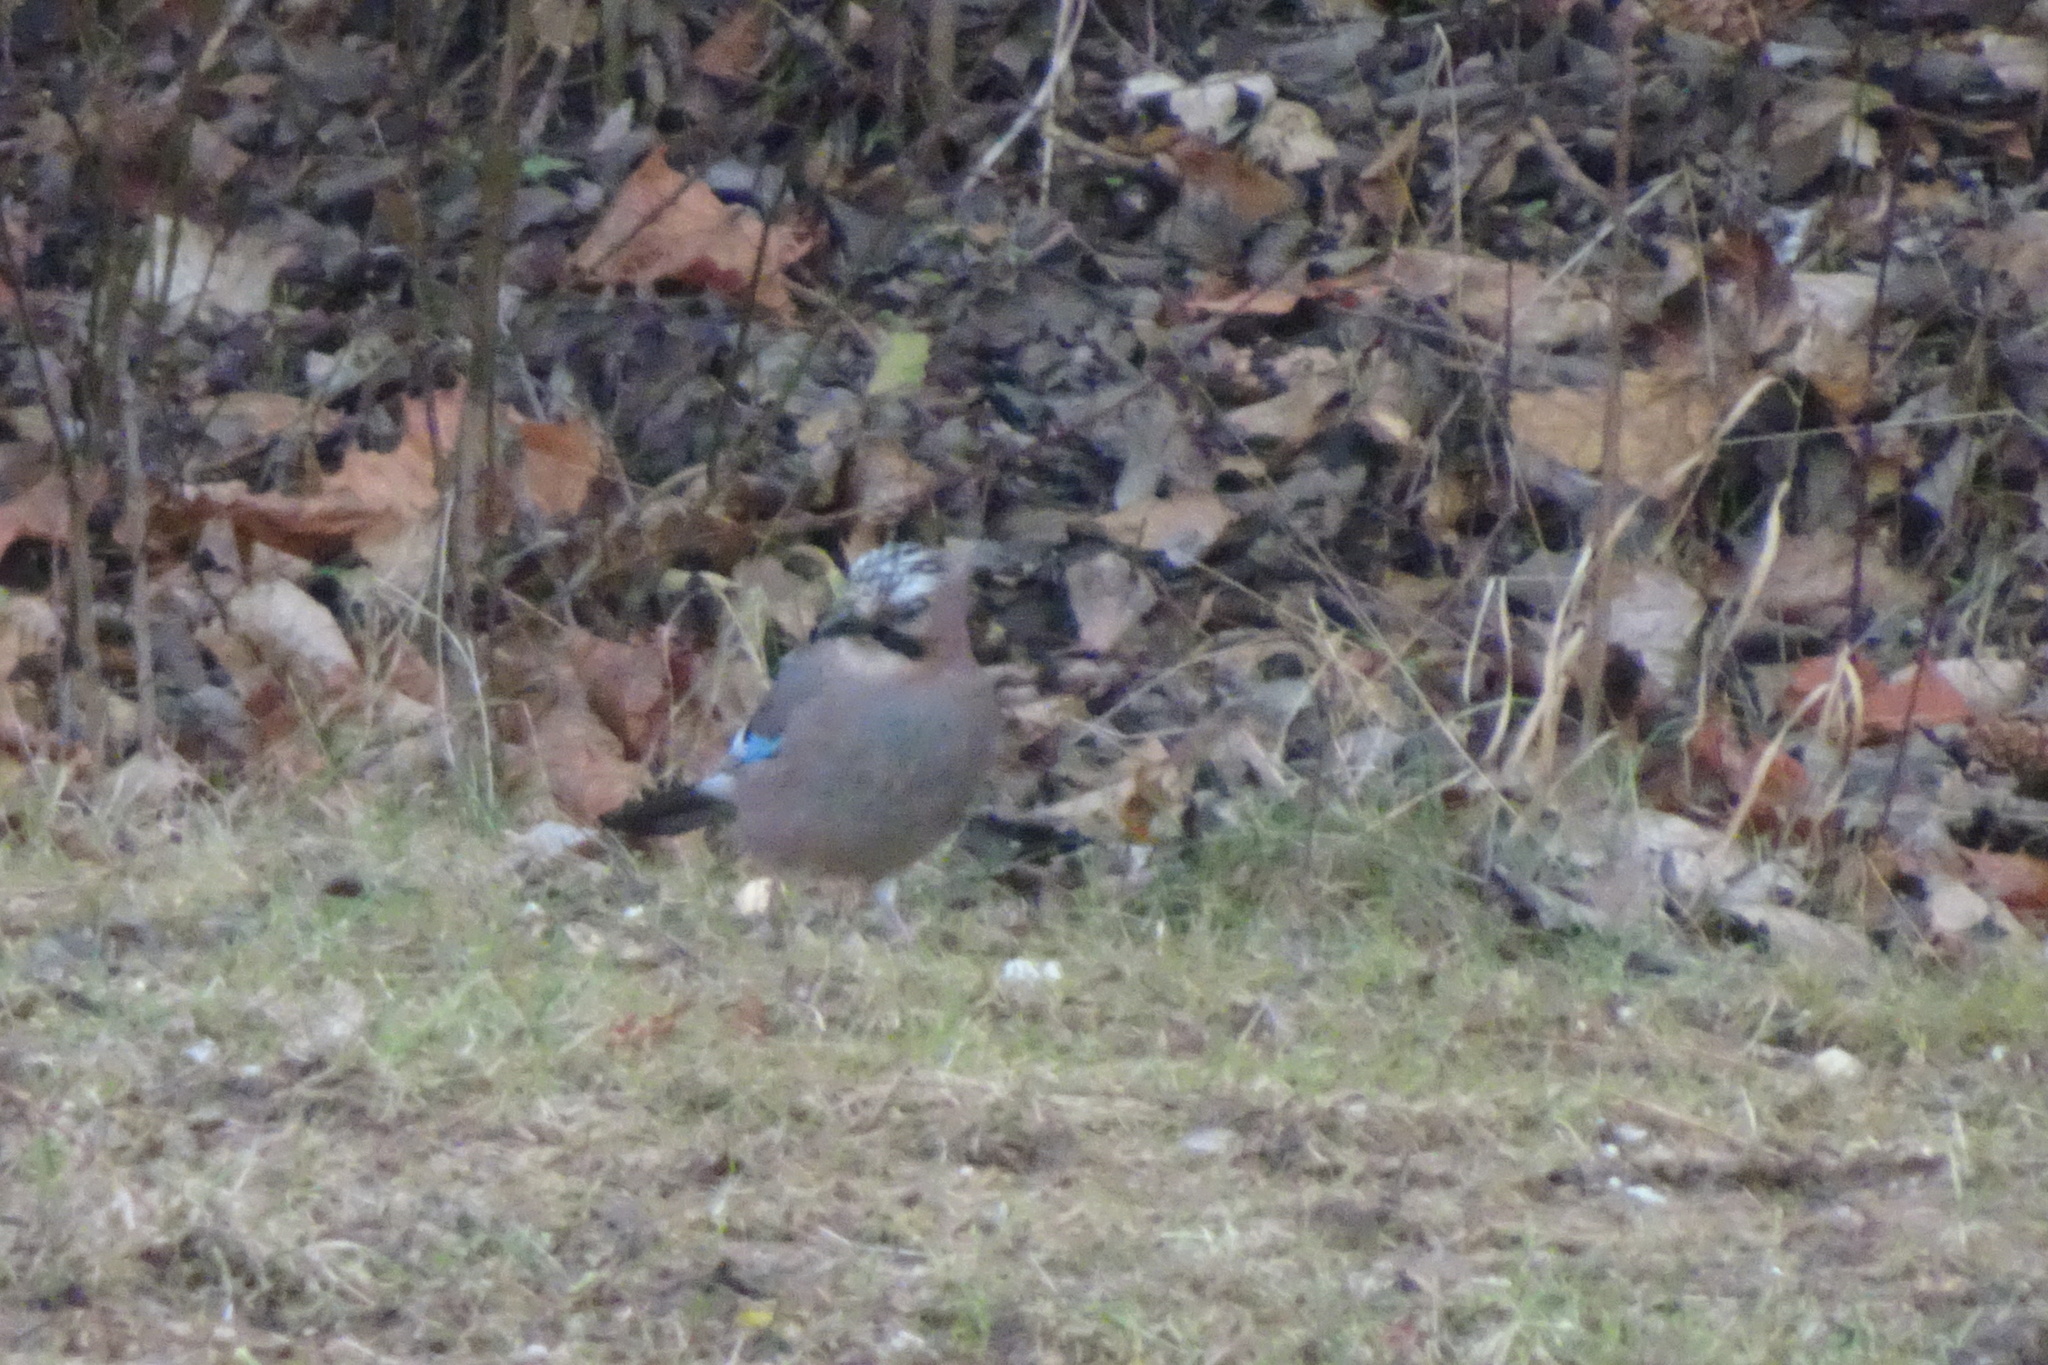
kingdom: Animalia
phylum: Chordata
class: Aves
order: Passeriformes
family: Corvidae
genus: Garrulus
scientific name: Garrulus glandarius
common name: Eurasian jay
